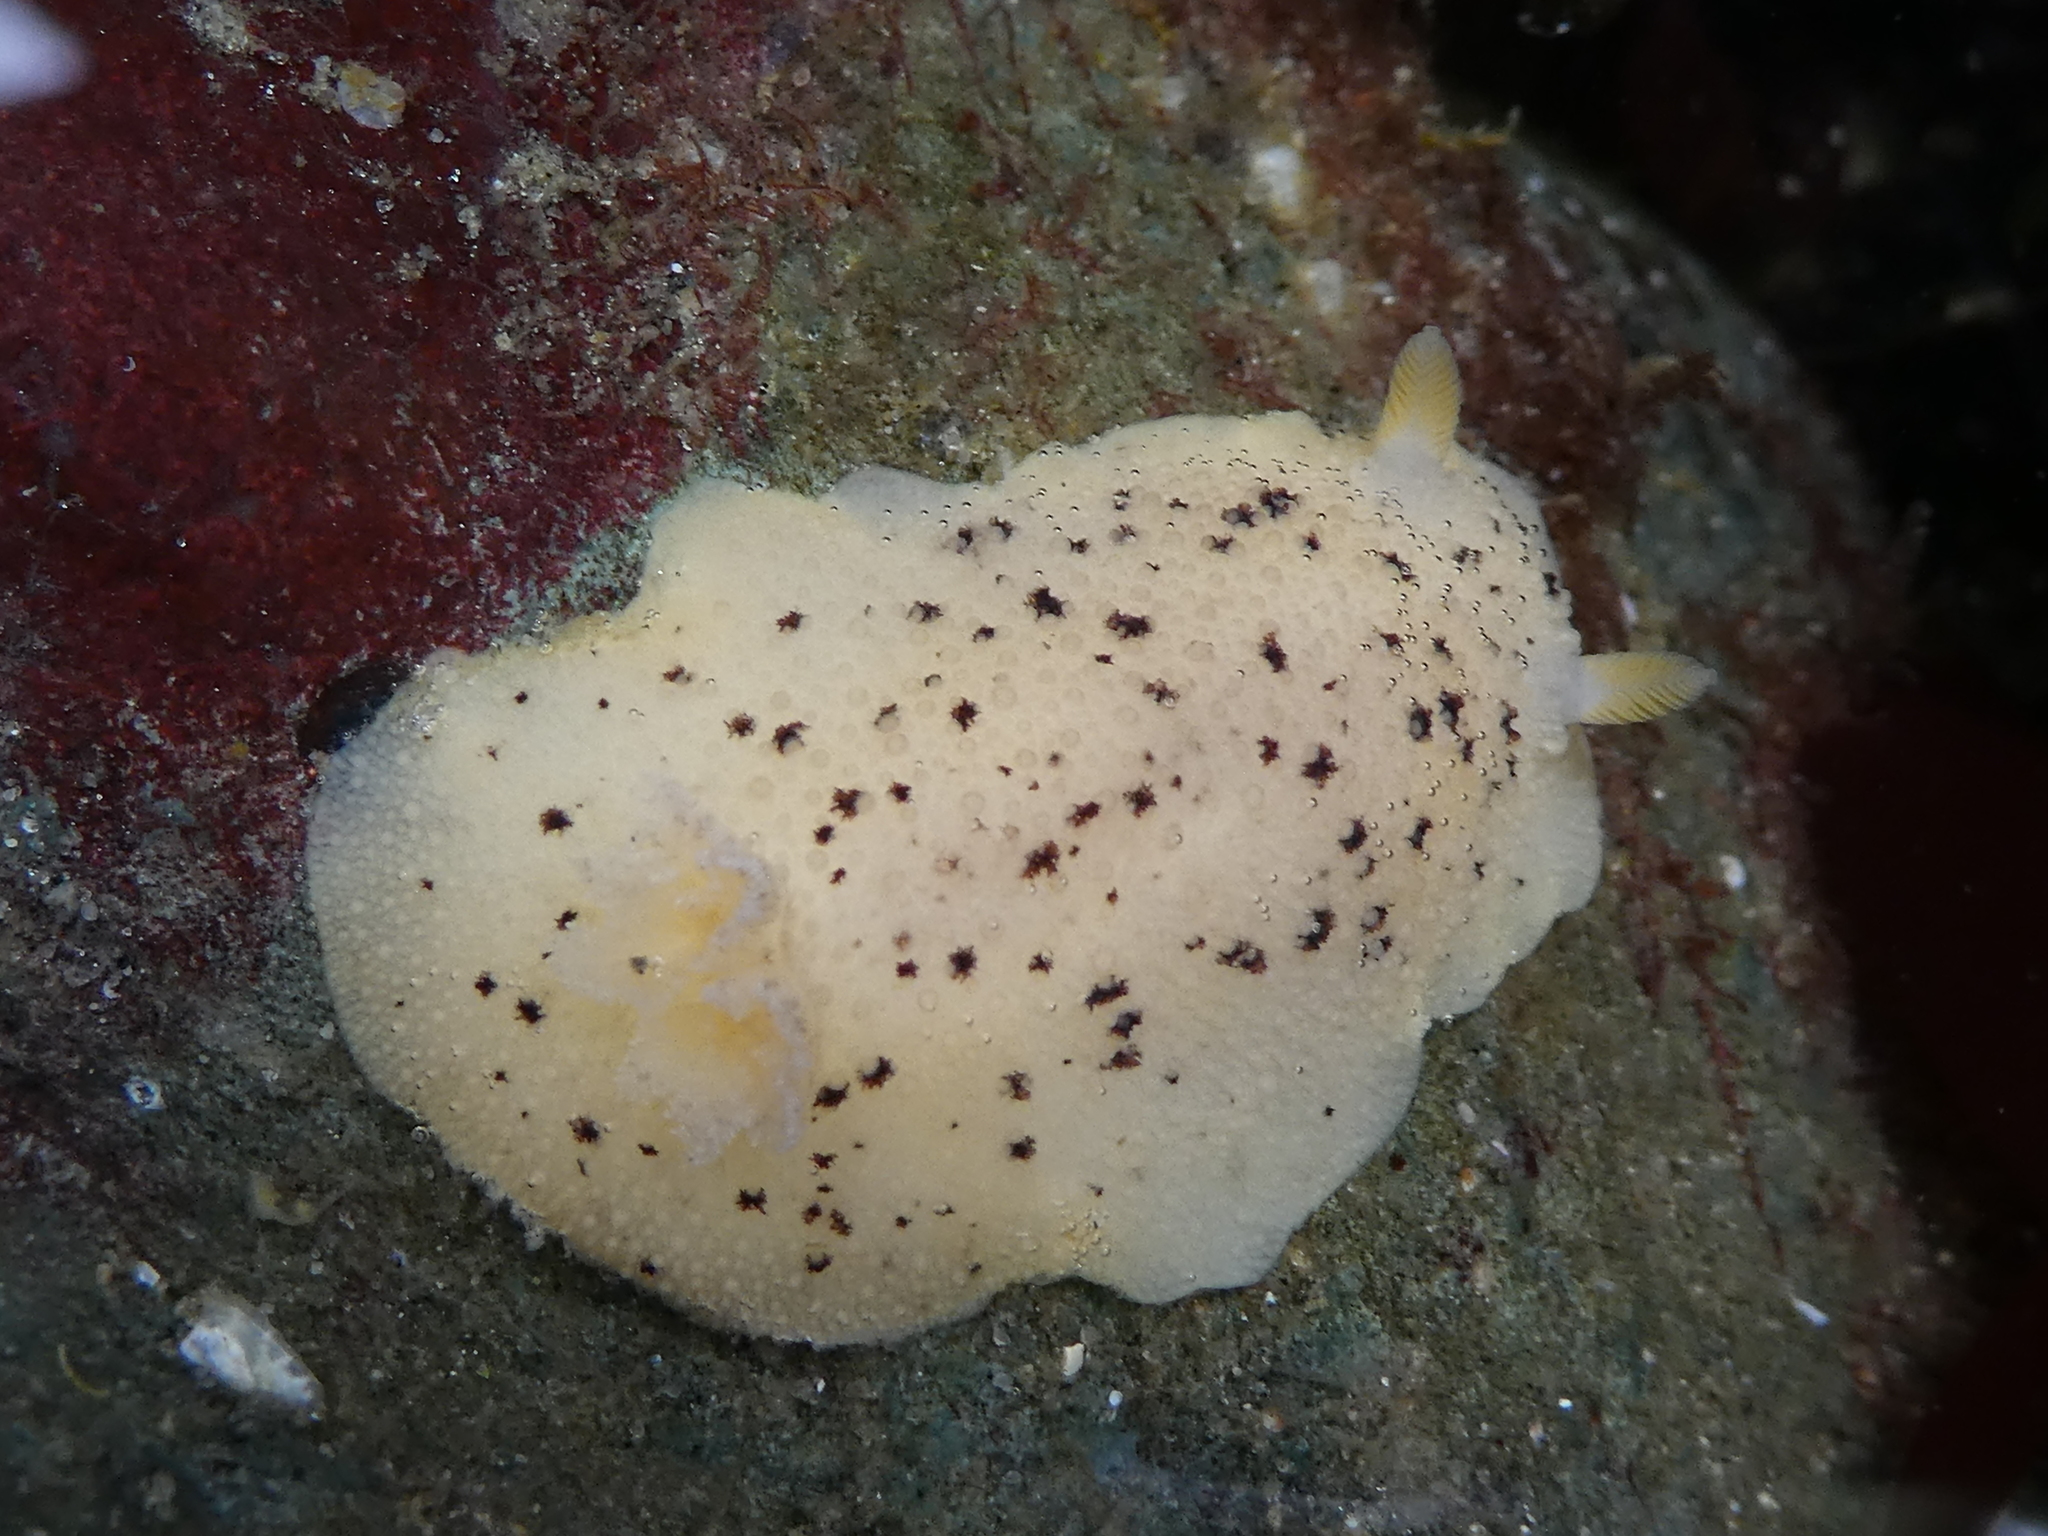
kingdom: Animalia
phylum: Mollusca
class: Gastropoda
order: Nudibranchia
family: Discodorididae
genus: Geitodoris
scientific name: Geitodoris heathi
